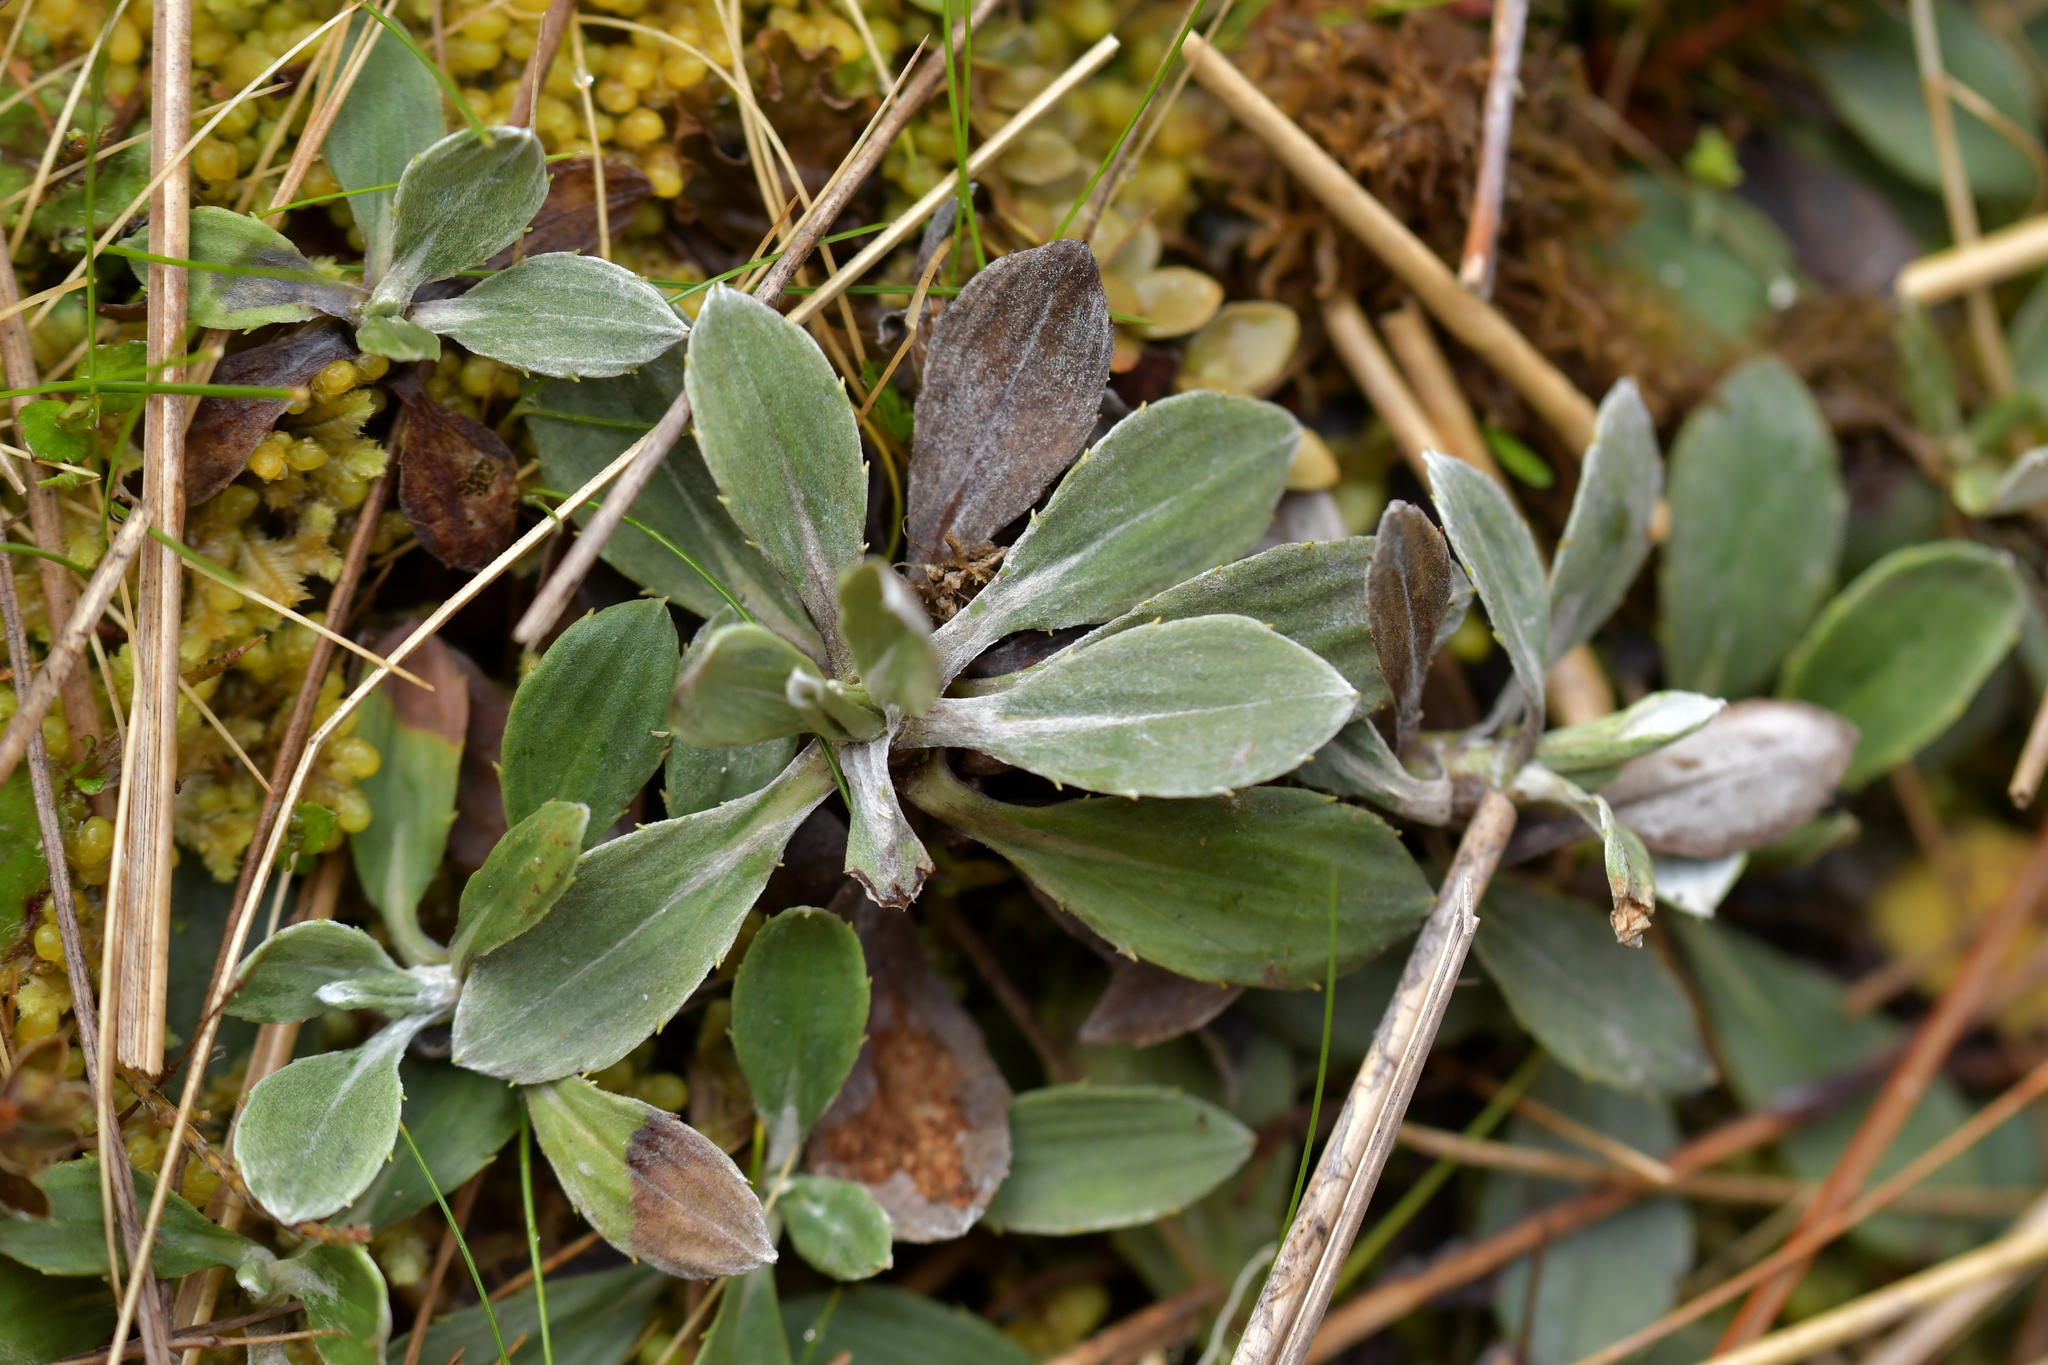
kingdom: Plantae
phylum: Tracheophyta
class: Magnoliopsida
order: Asterales
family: Asteraceae
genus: Celmisia
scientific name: Celmisia discolor
